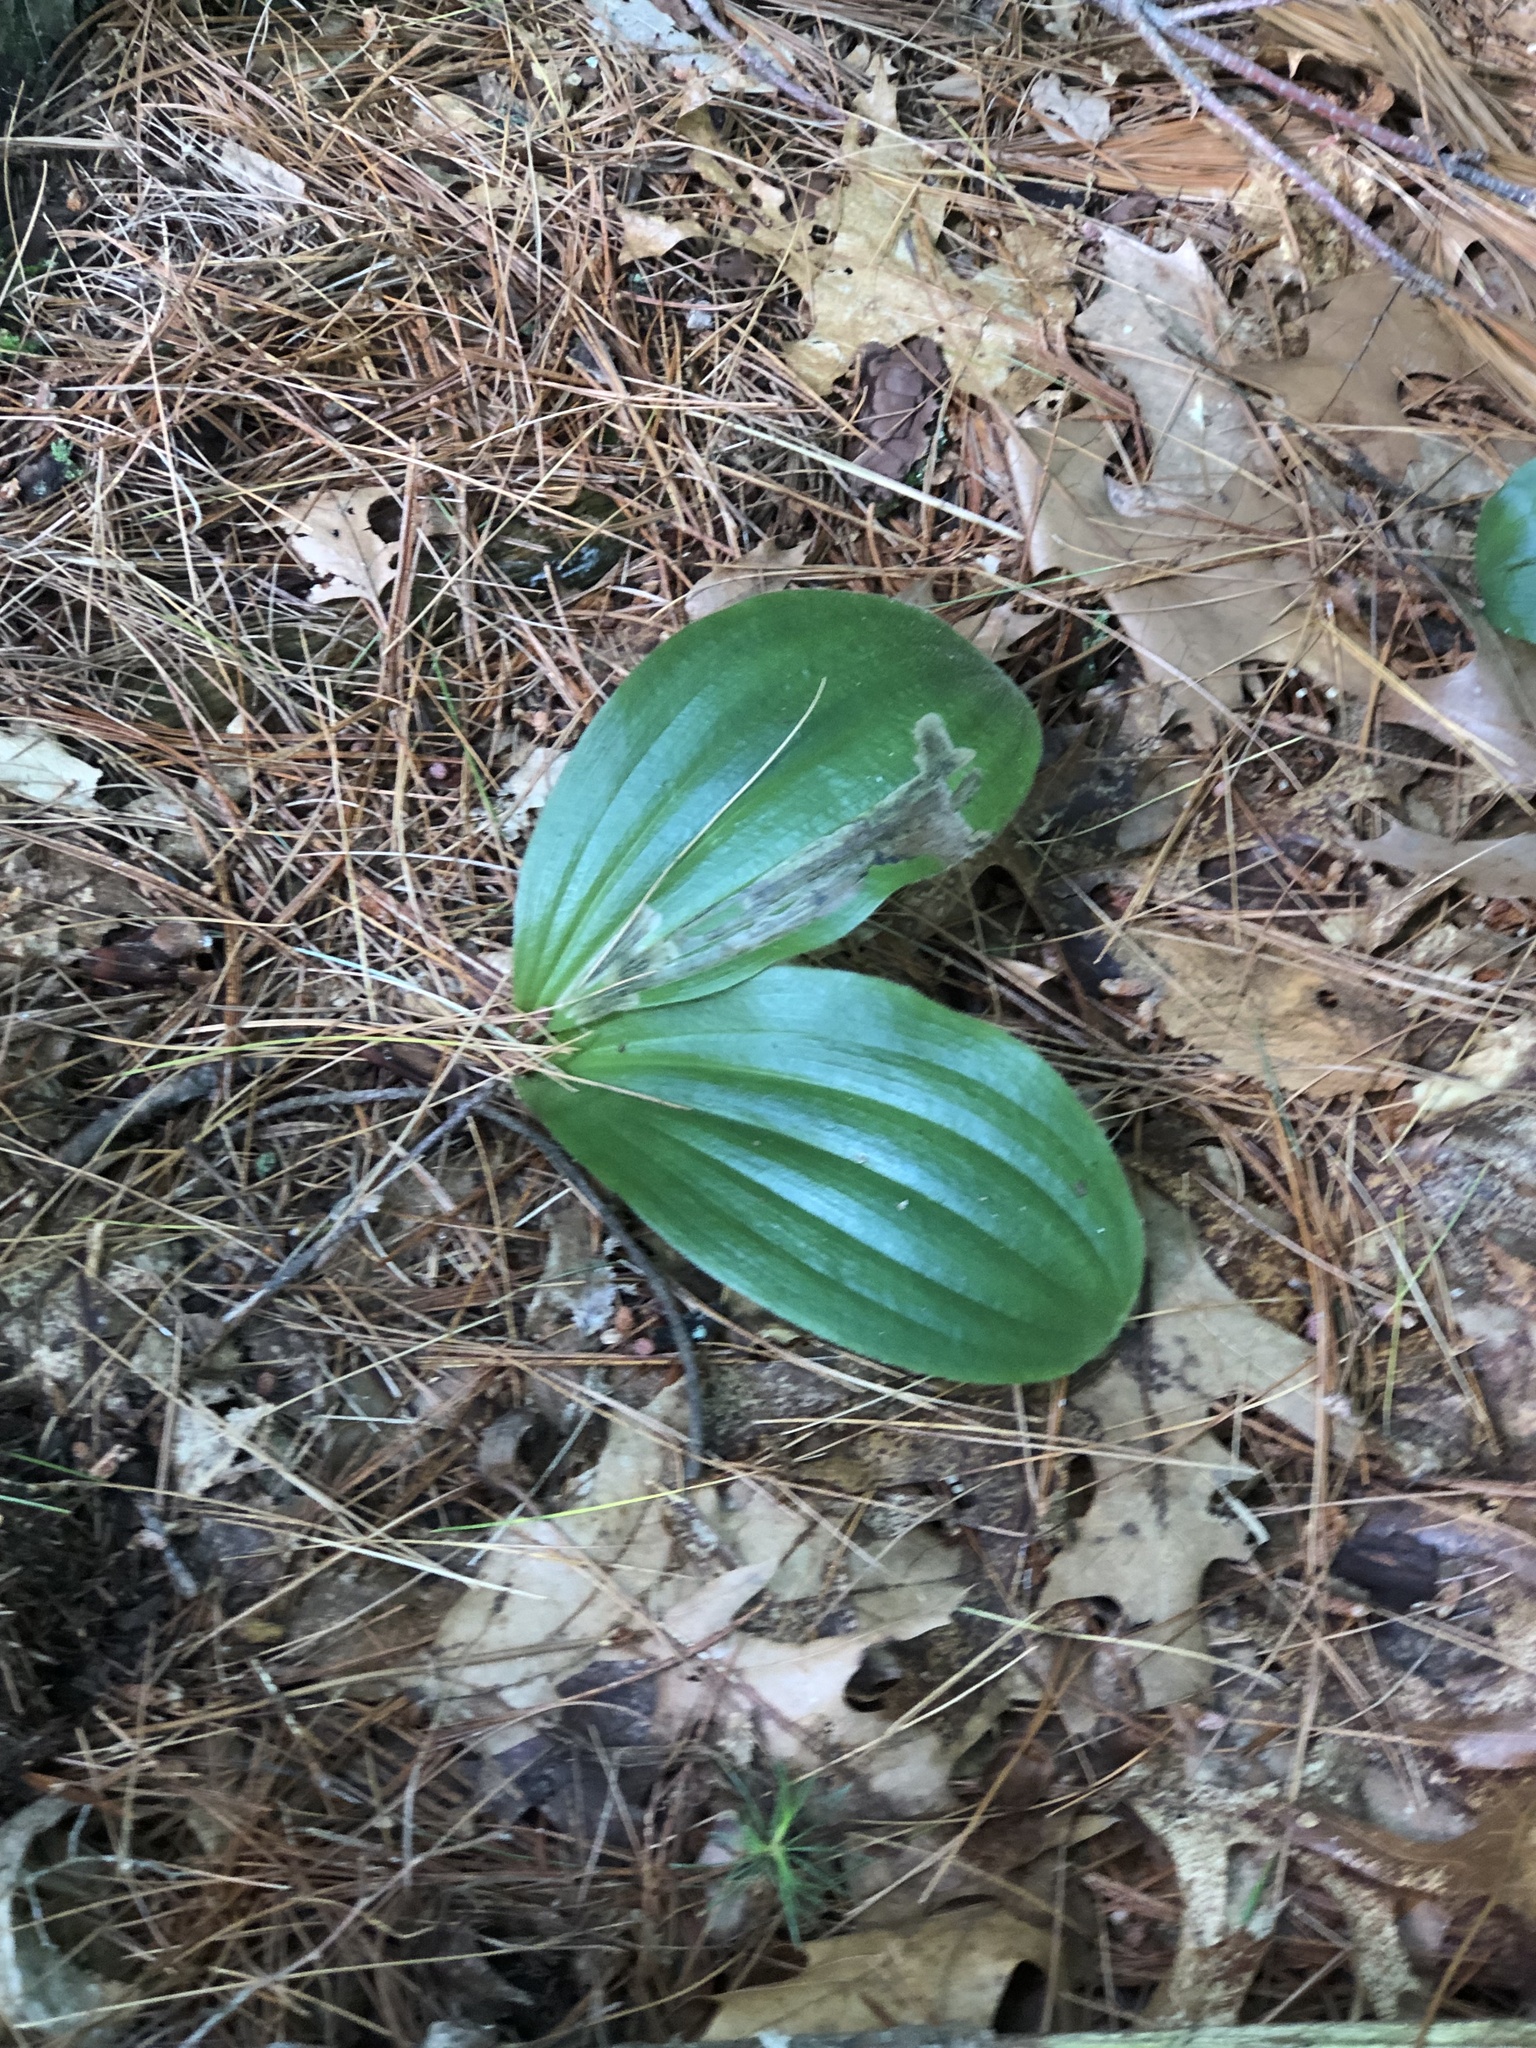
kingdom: Plantae
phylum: Tracheophyta
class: Liliopsida
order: Asparagales
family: Orchidaceae
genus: Cypripedium
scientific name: Cypripedium acaule
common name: Pink lady's-slipper
